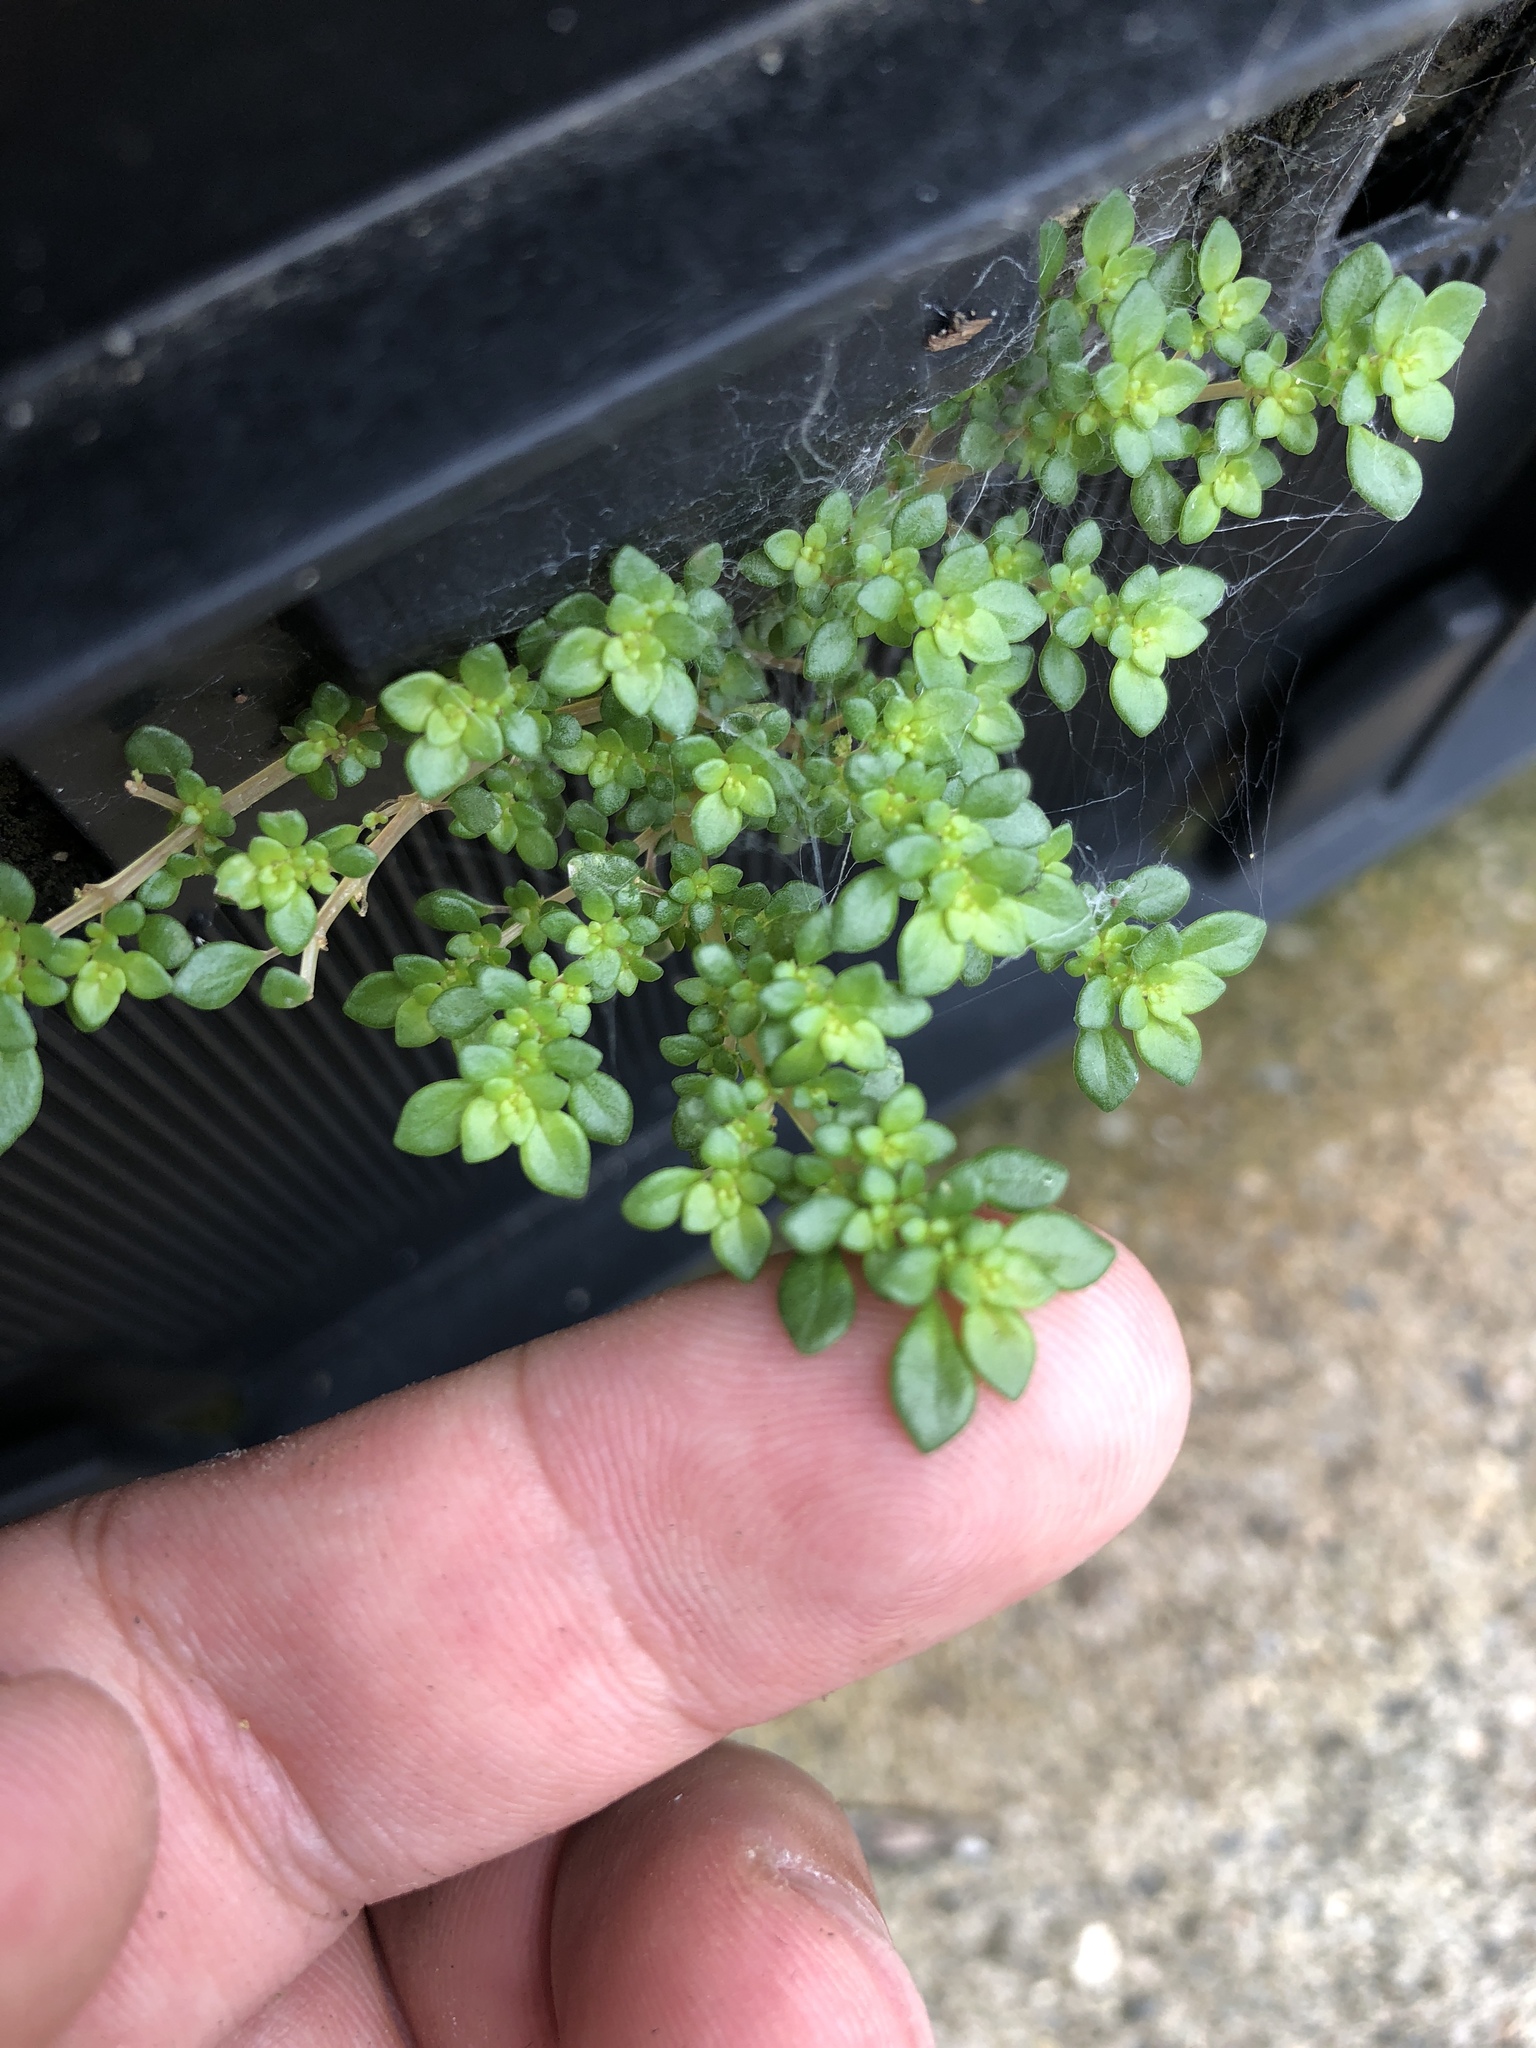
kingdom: Plantae
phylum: Tracheophyta
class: Magnoliopsida
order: Rosales
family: Urticaceae
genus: Pilea
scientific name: Pilea microphylla
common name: Artillery-plant
